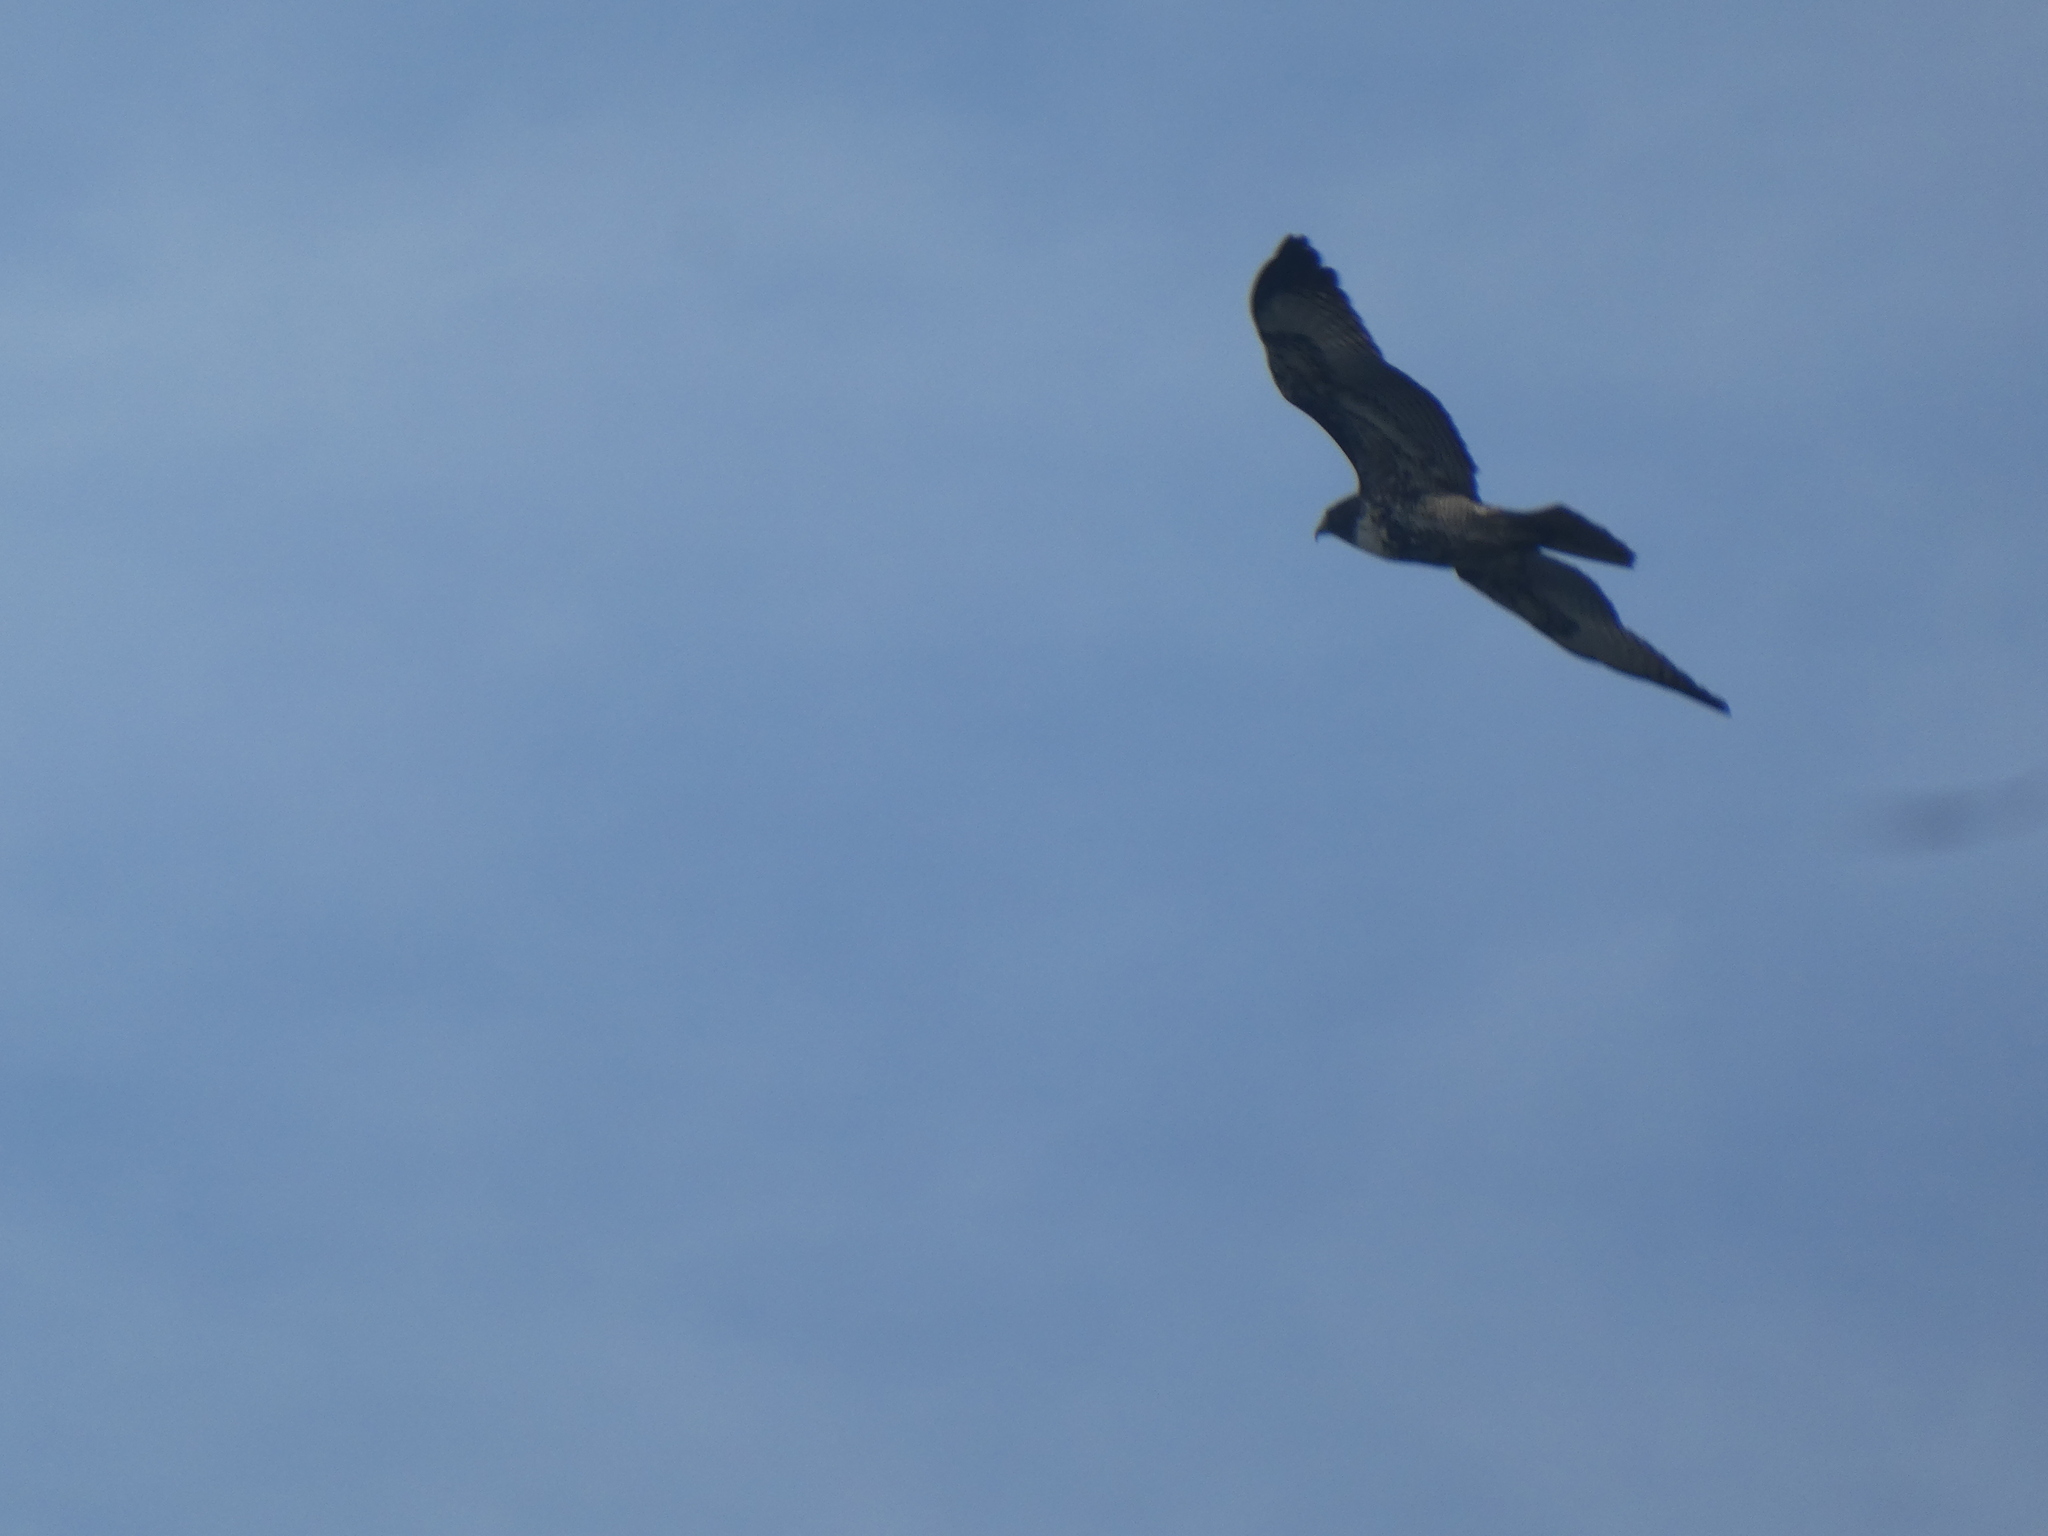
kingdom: Animalia
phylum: Chordata
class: Aves
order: Accipitriformes
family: Accipitridae
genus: Buteo
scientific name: Buteo jamaicensis
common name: Red-tailed hawk
